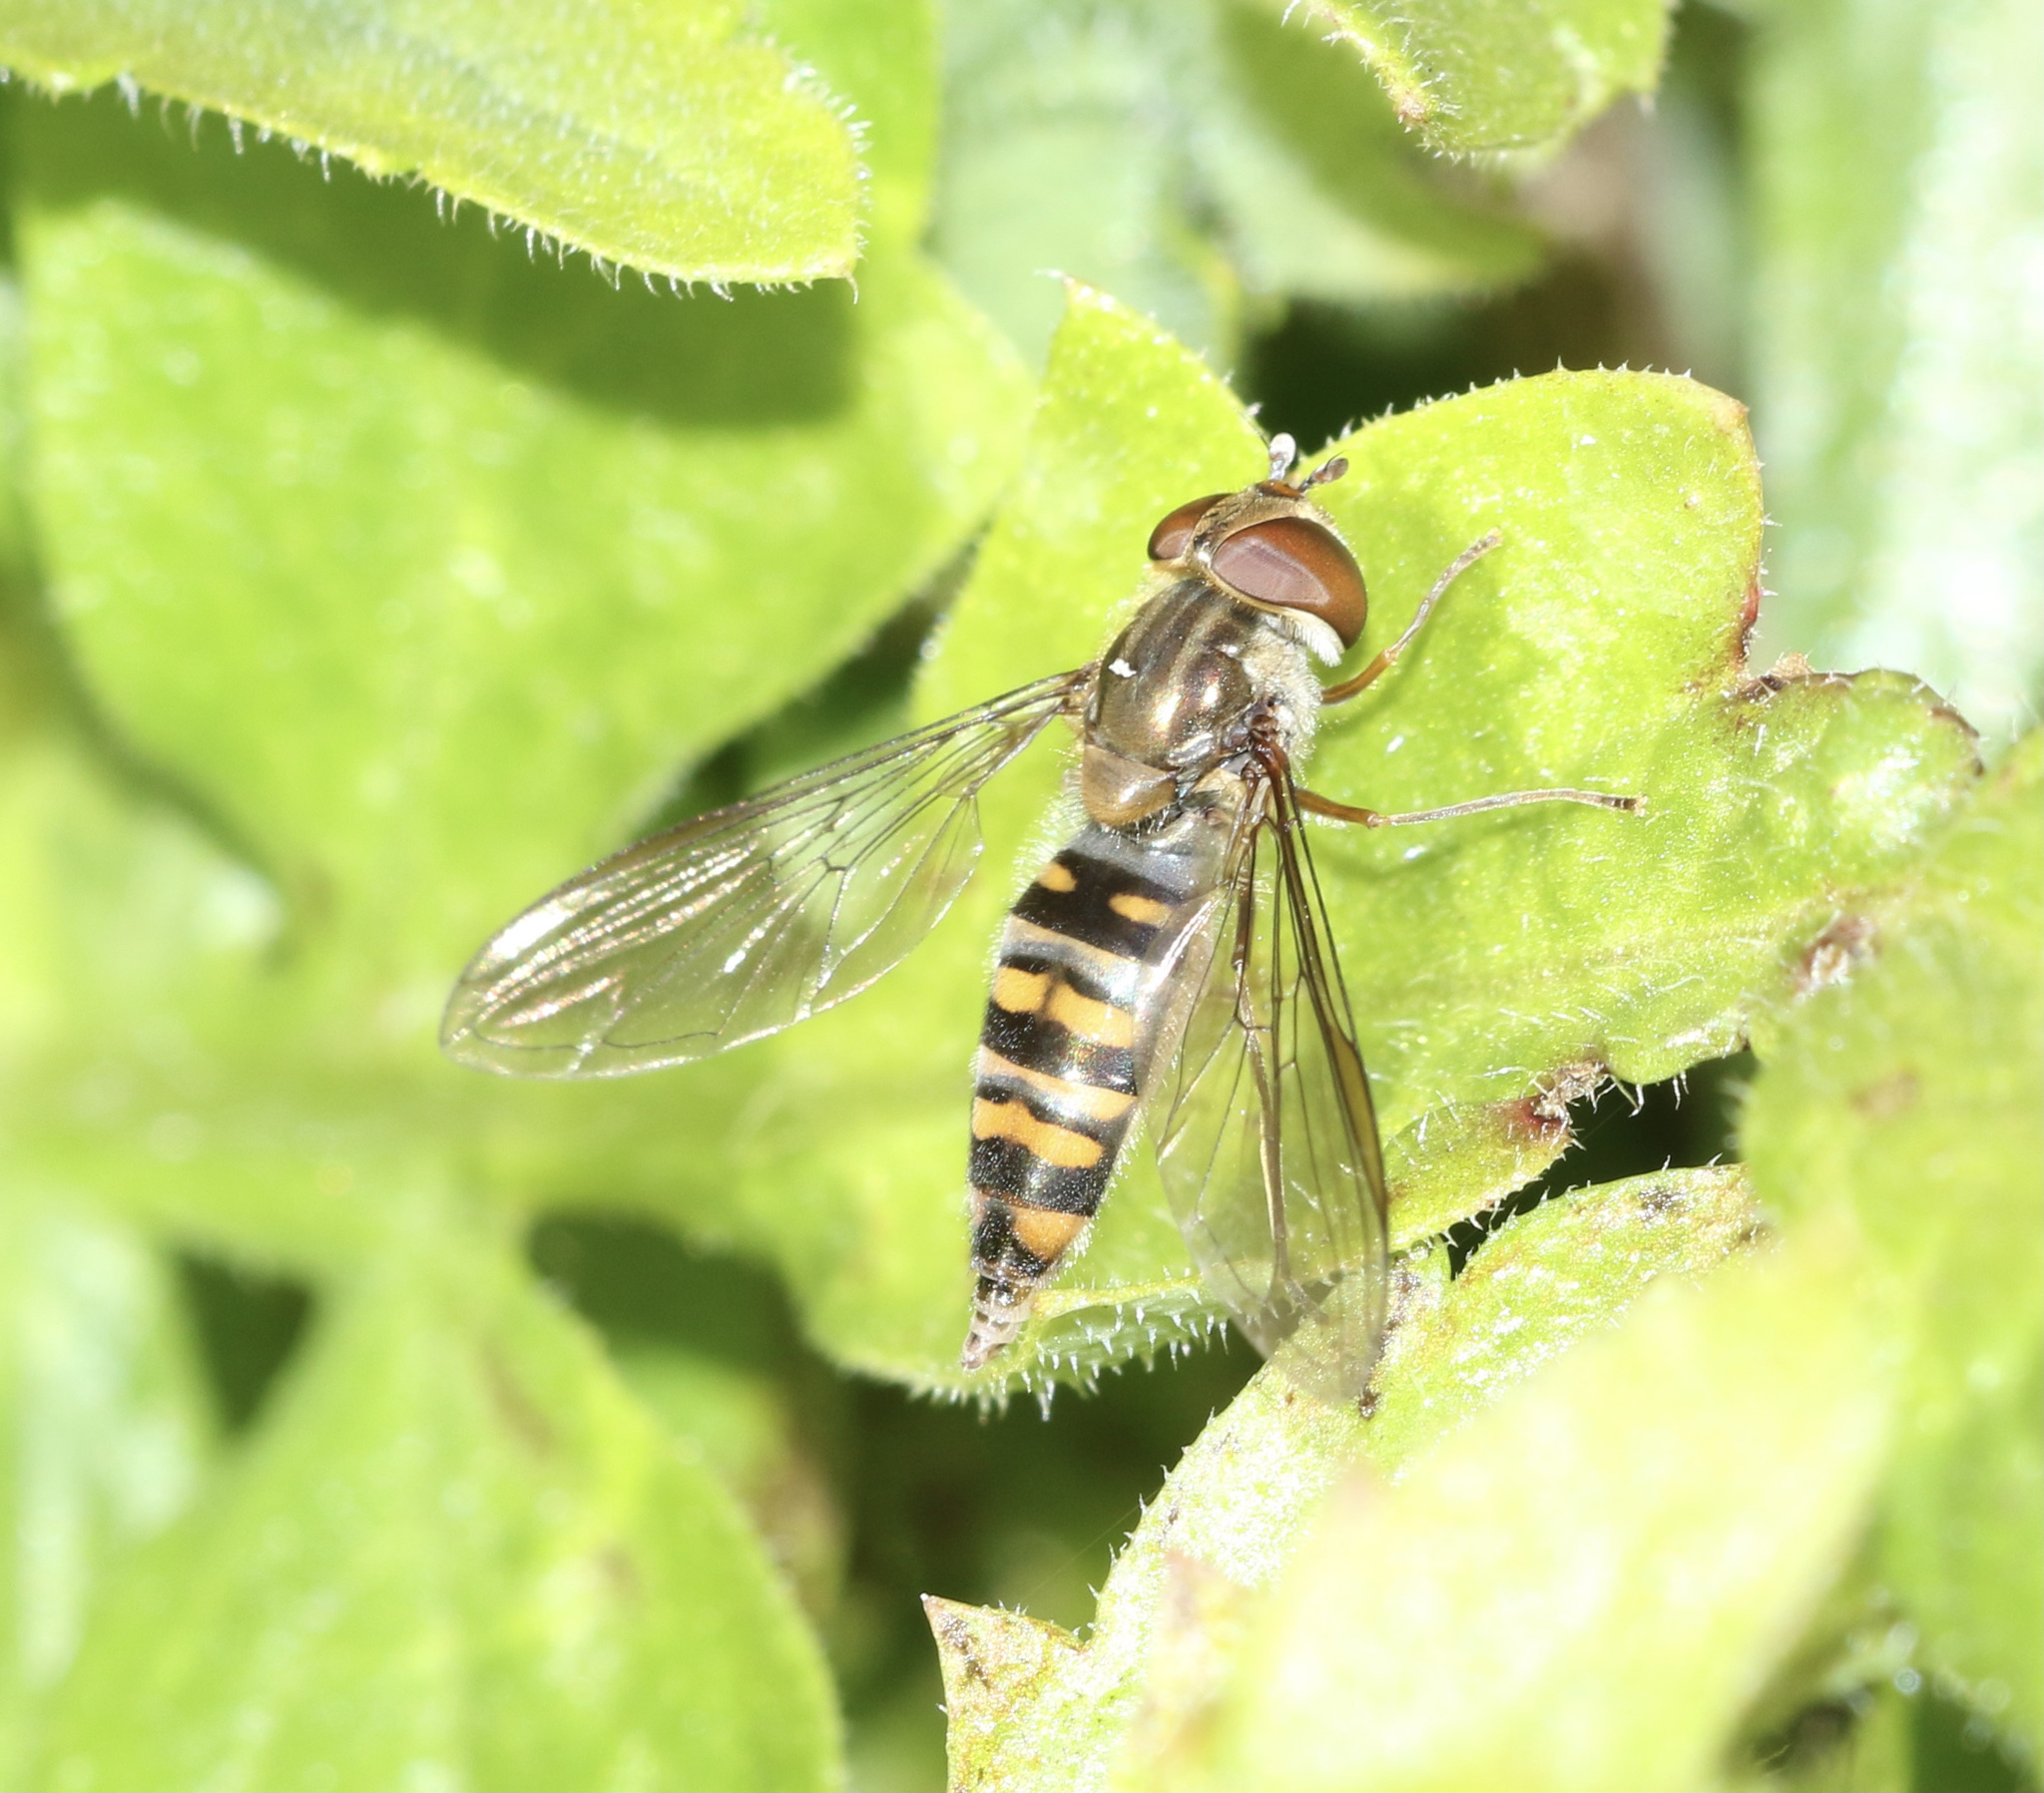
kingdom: Animalia
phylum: Arthropoda
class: Insecta
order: Diptera
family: Syrphidae
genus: Episyrphus
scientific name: Episyrphus balteatus
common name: Marmalade hoverfly
